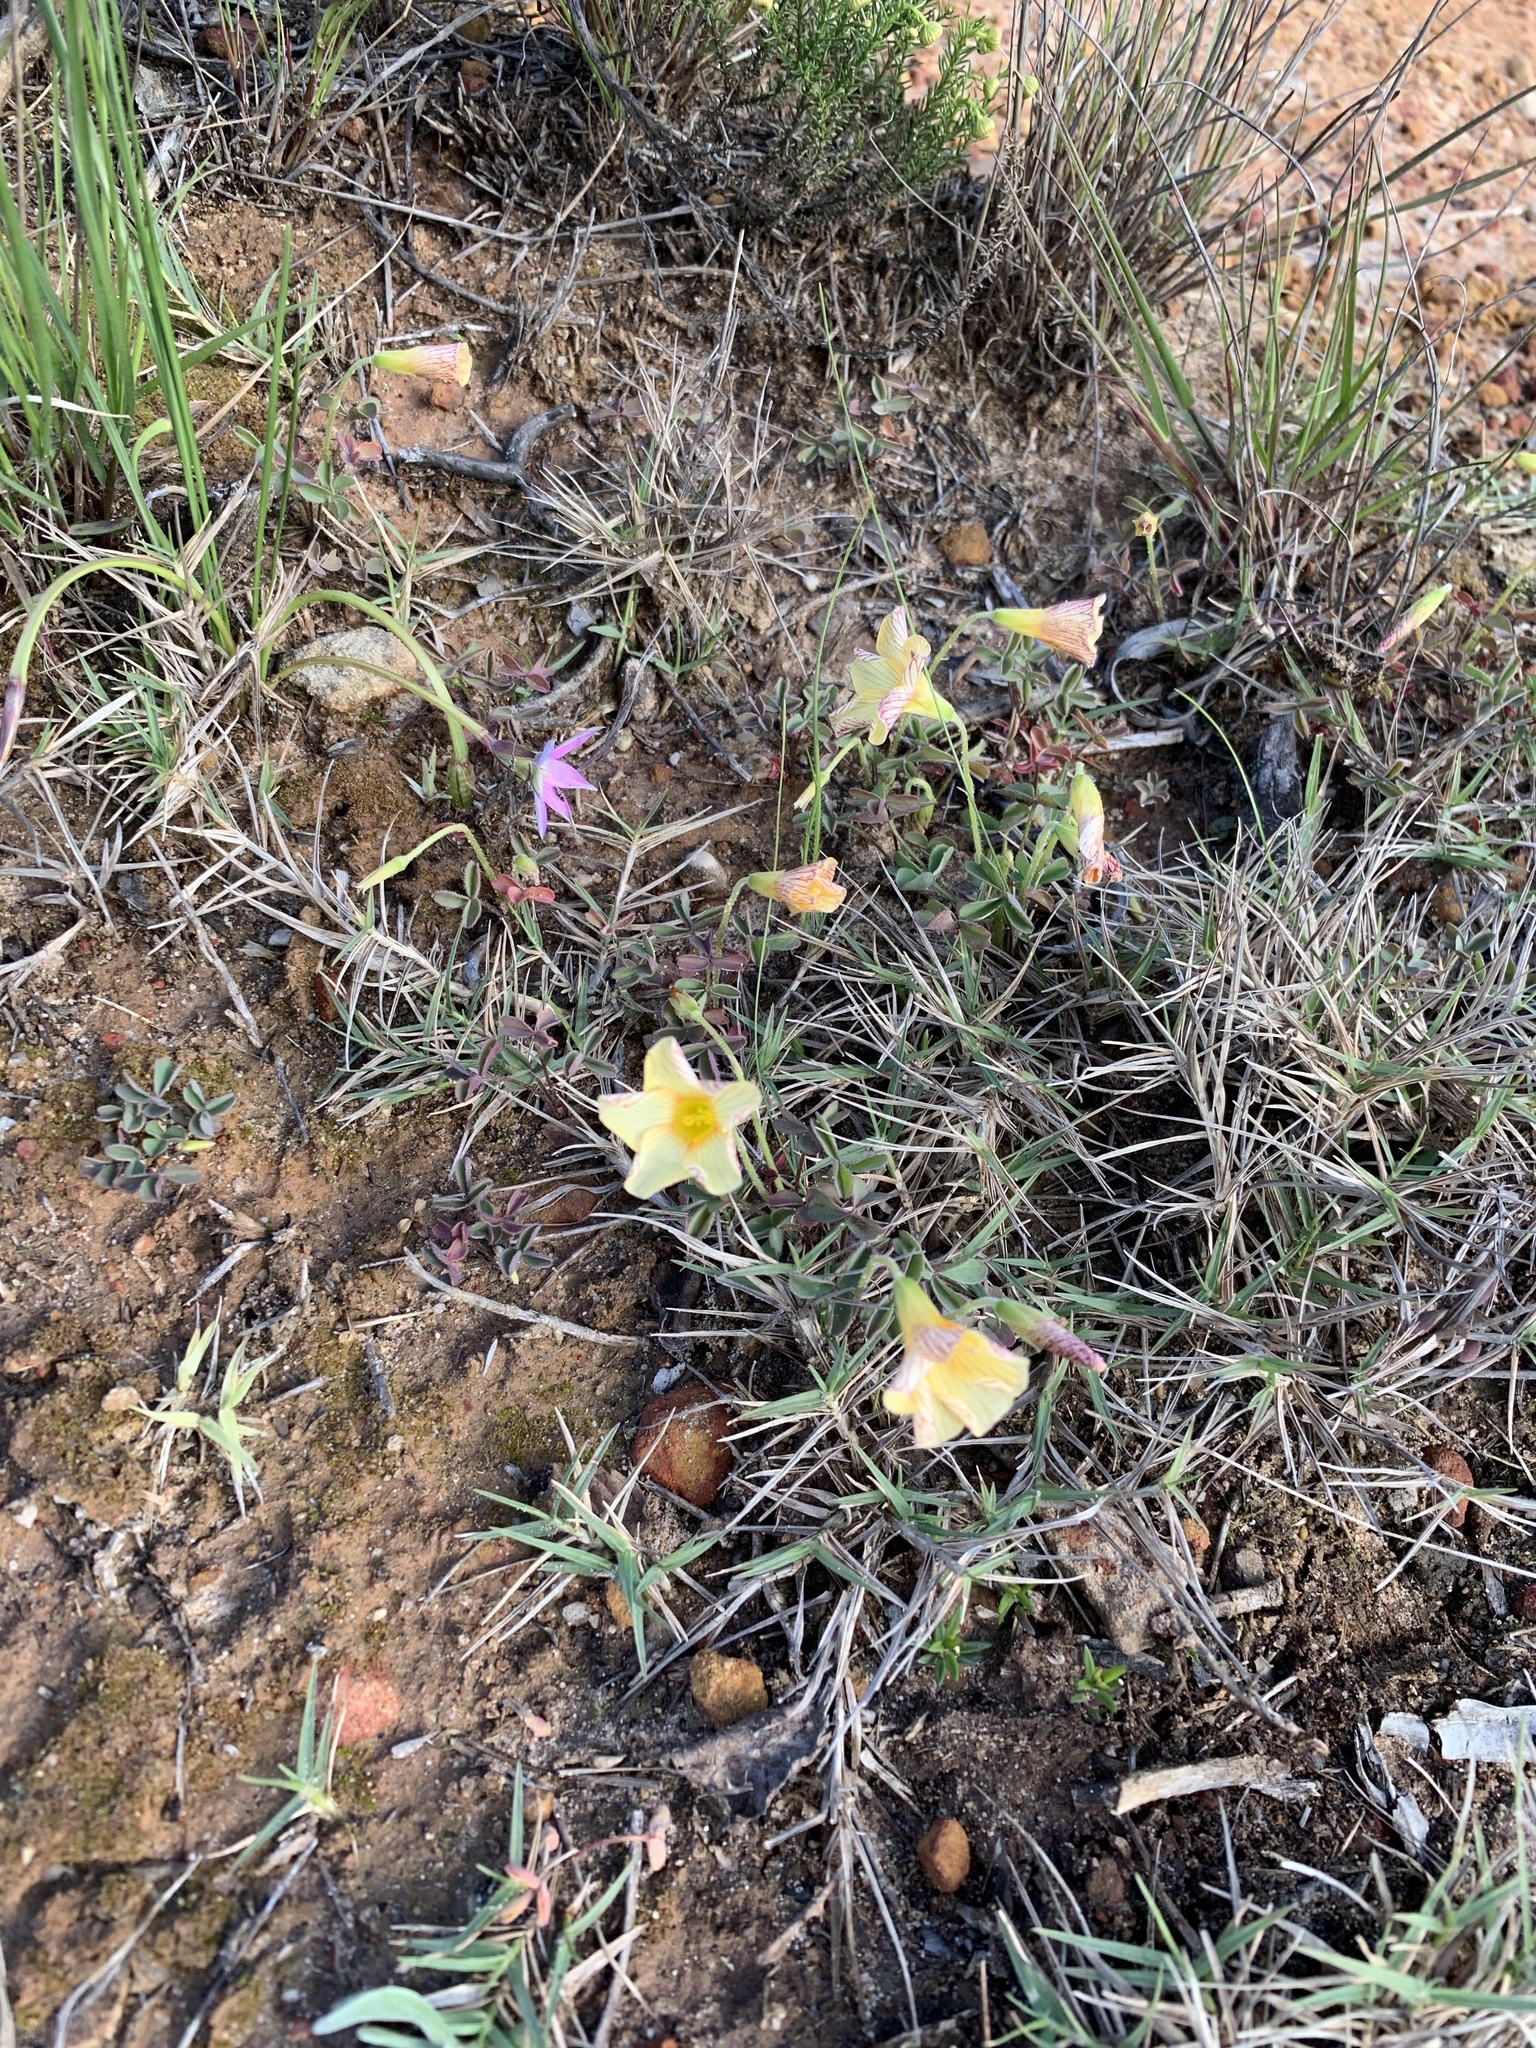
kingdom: Plantae
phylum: Tracheophyta
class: Magnoliopsida
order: Oxalidales
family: Oxalidaceae
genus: Oxalis
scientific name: Oxalis obtusa
